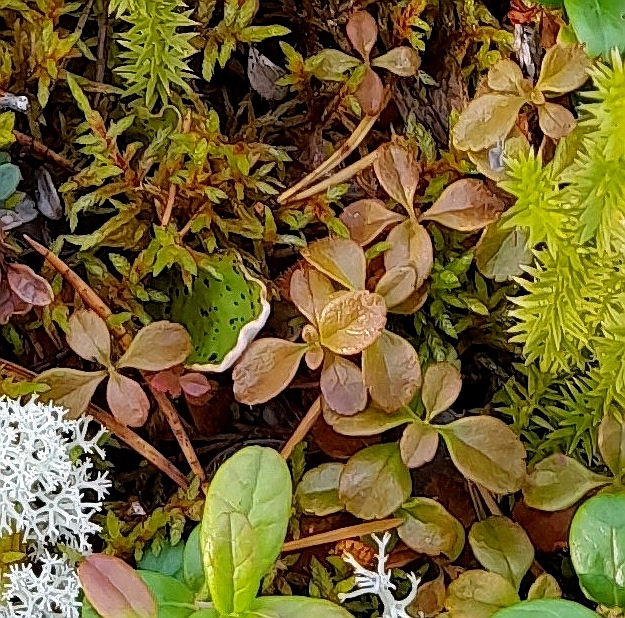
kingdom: Plantae
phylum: Tracheophyta
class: Magnoliopsida
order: Dipsacales
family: Caprifoliaceae
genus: Linnaea
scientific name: Linnaea borealis
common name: Twinflower
